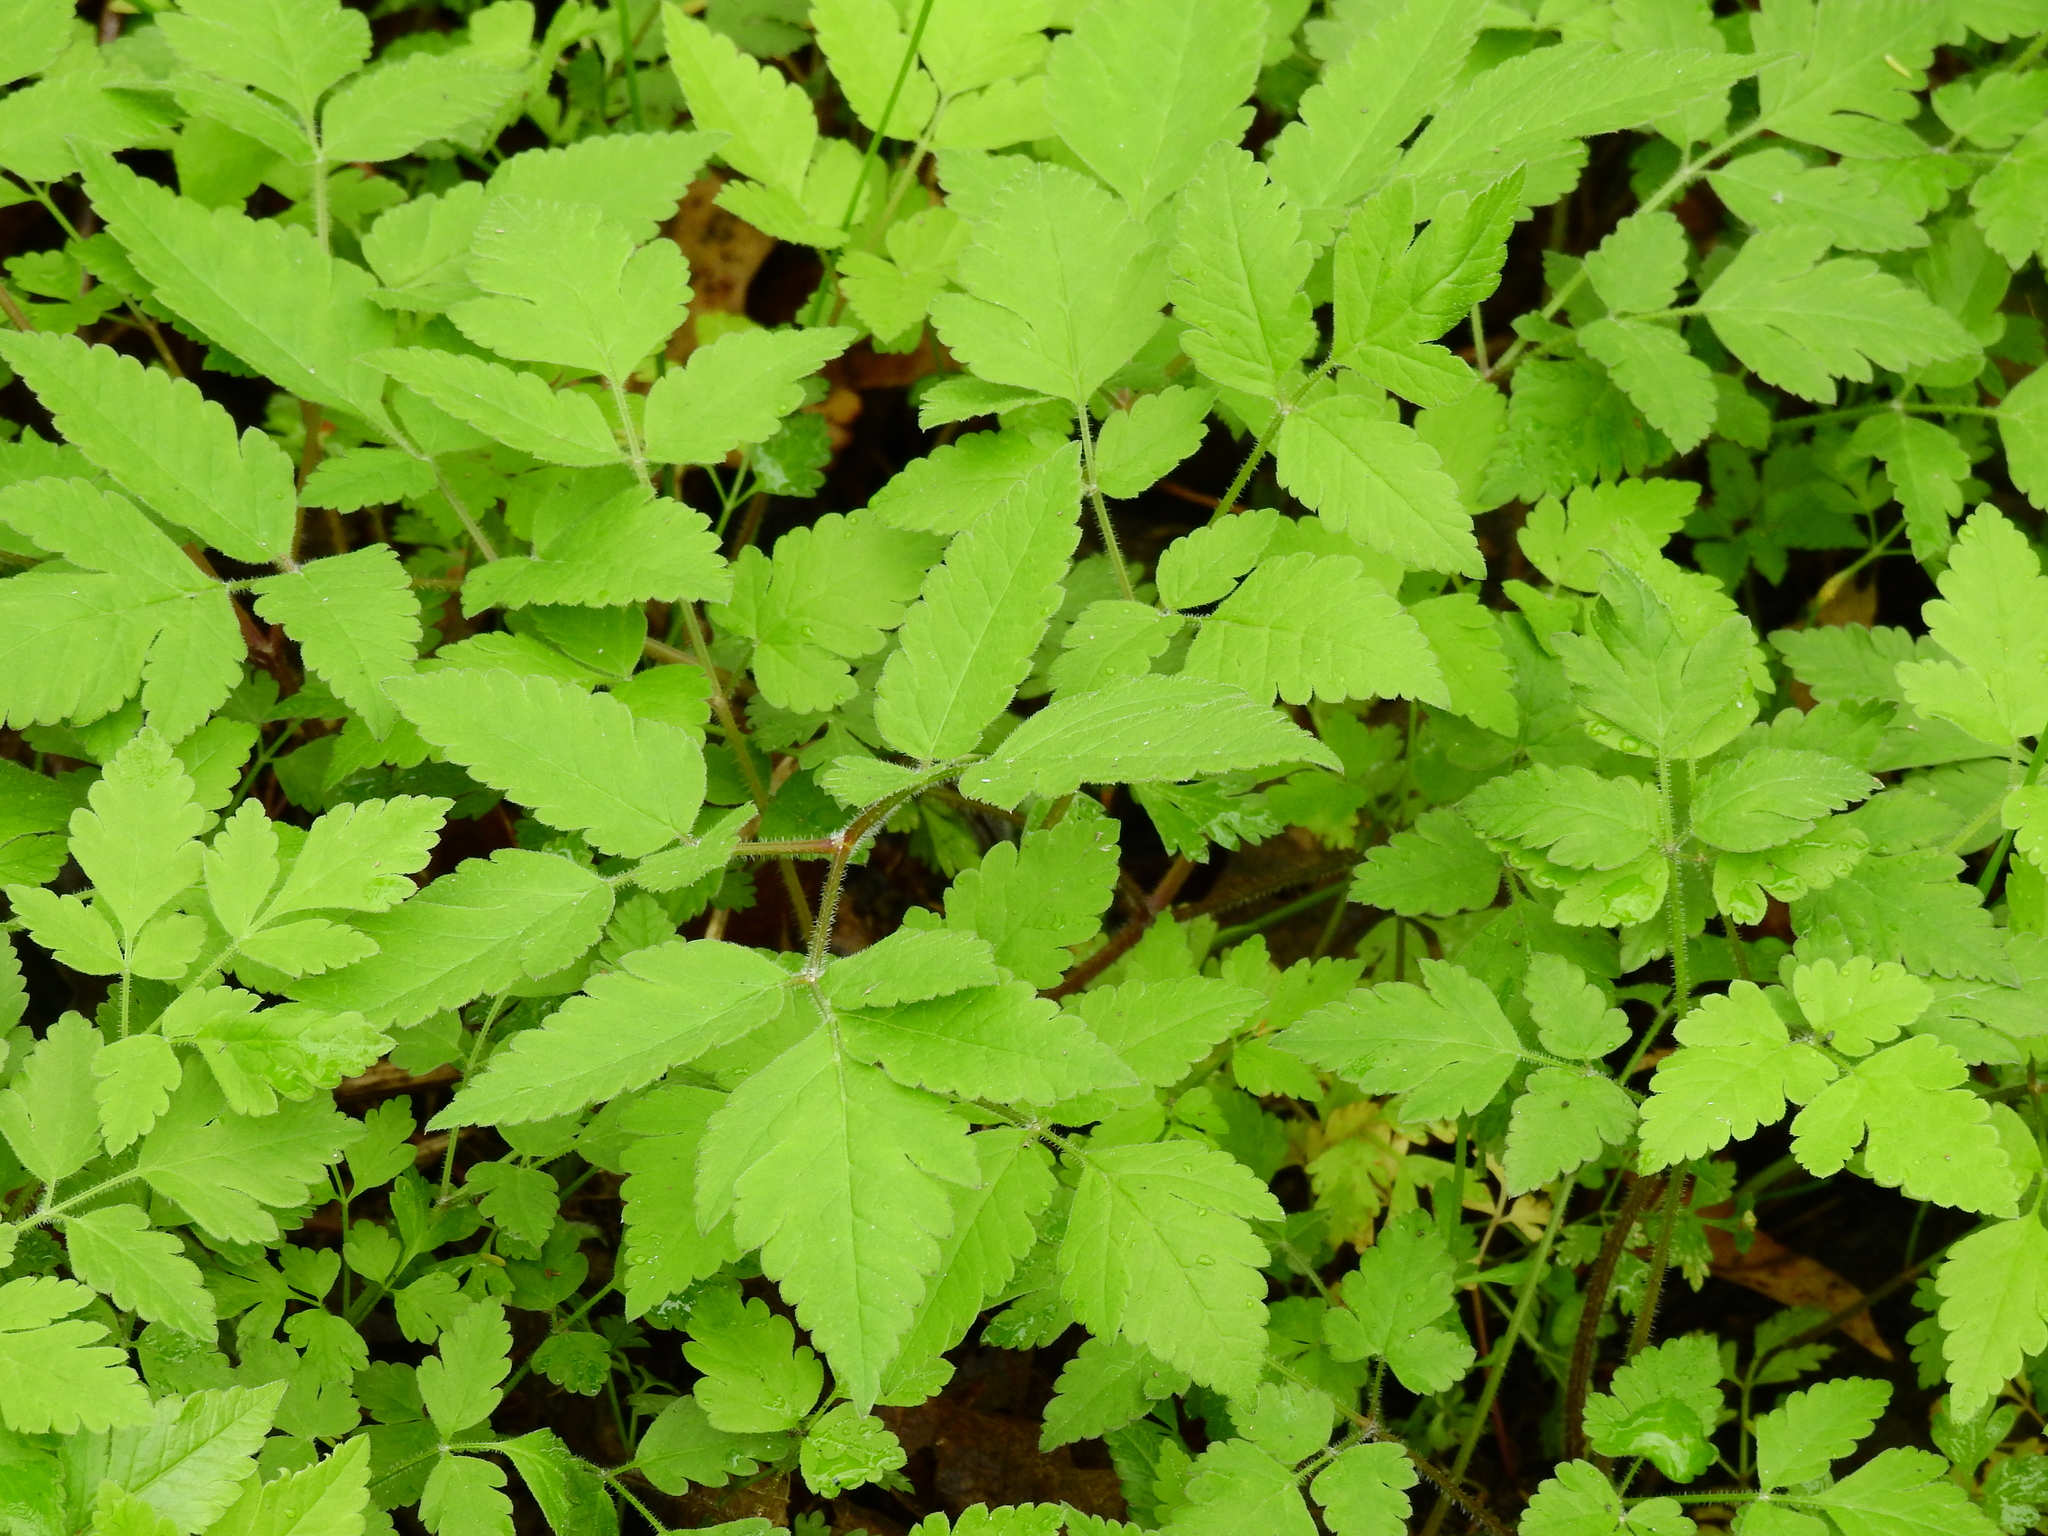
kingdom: Plantae
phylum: Tracheophyta
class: Magnoliopsida
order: Apiales
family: Apiaceae
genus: Osmorhiza
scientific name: Osmorhiza claytonii
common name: Hairy sweet cicely
